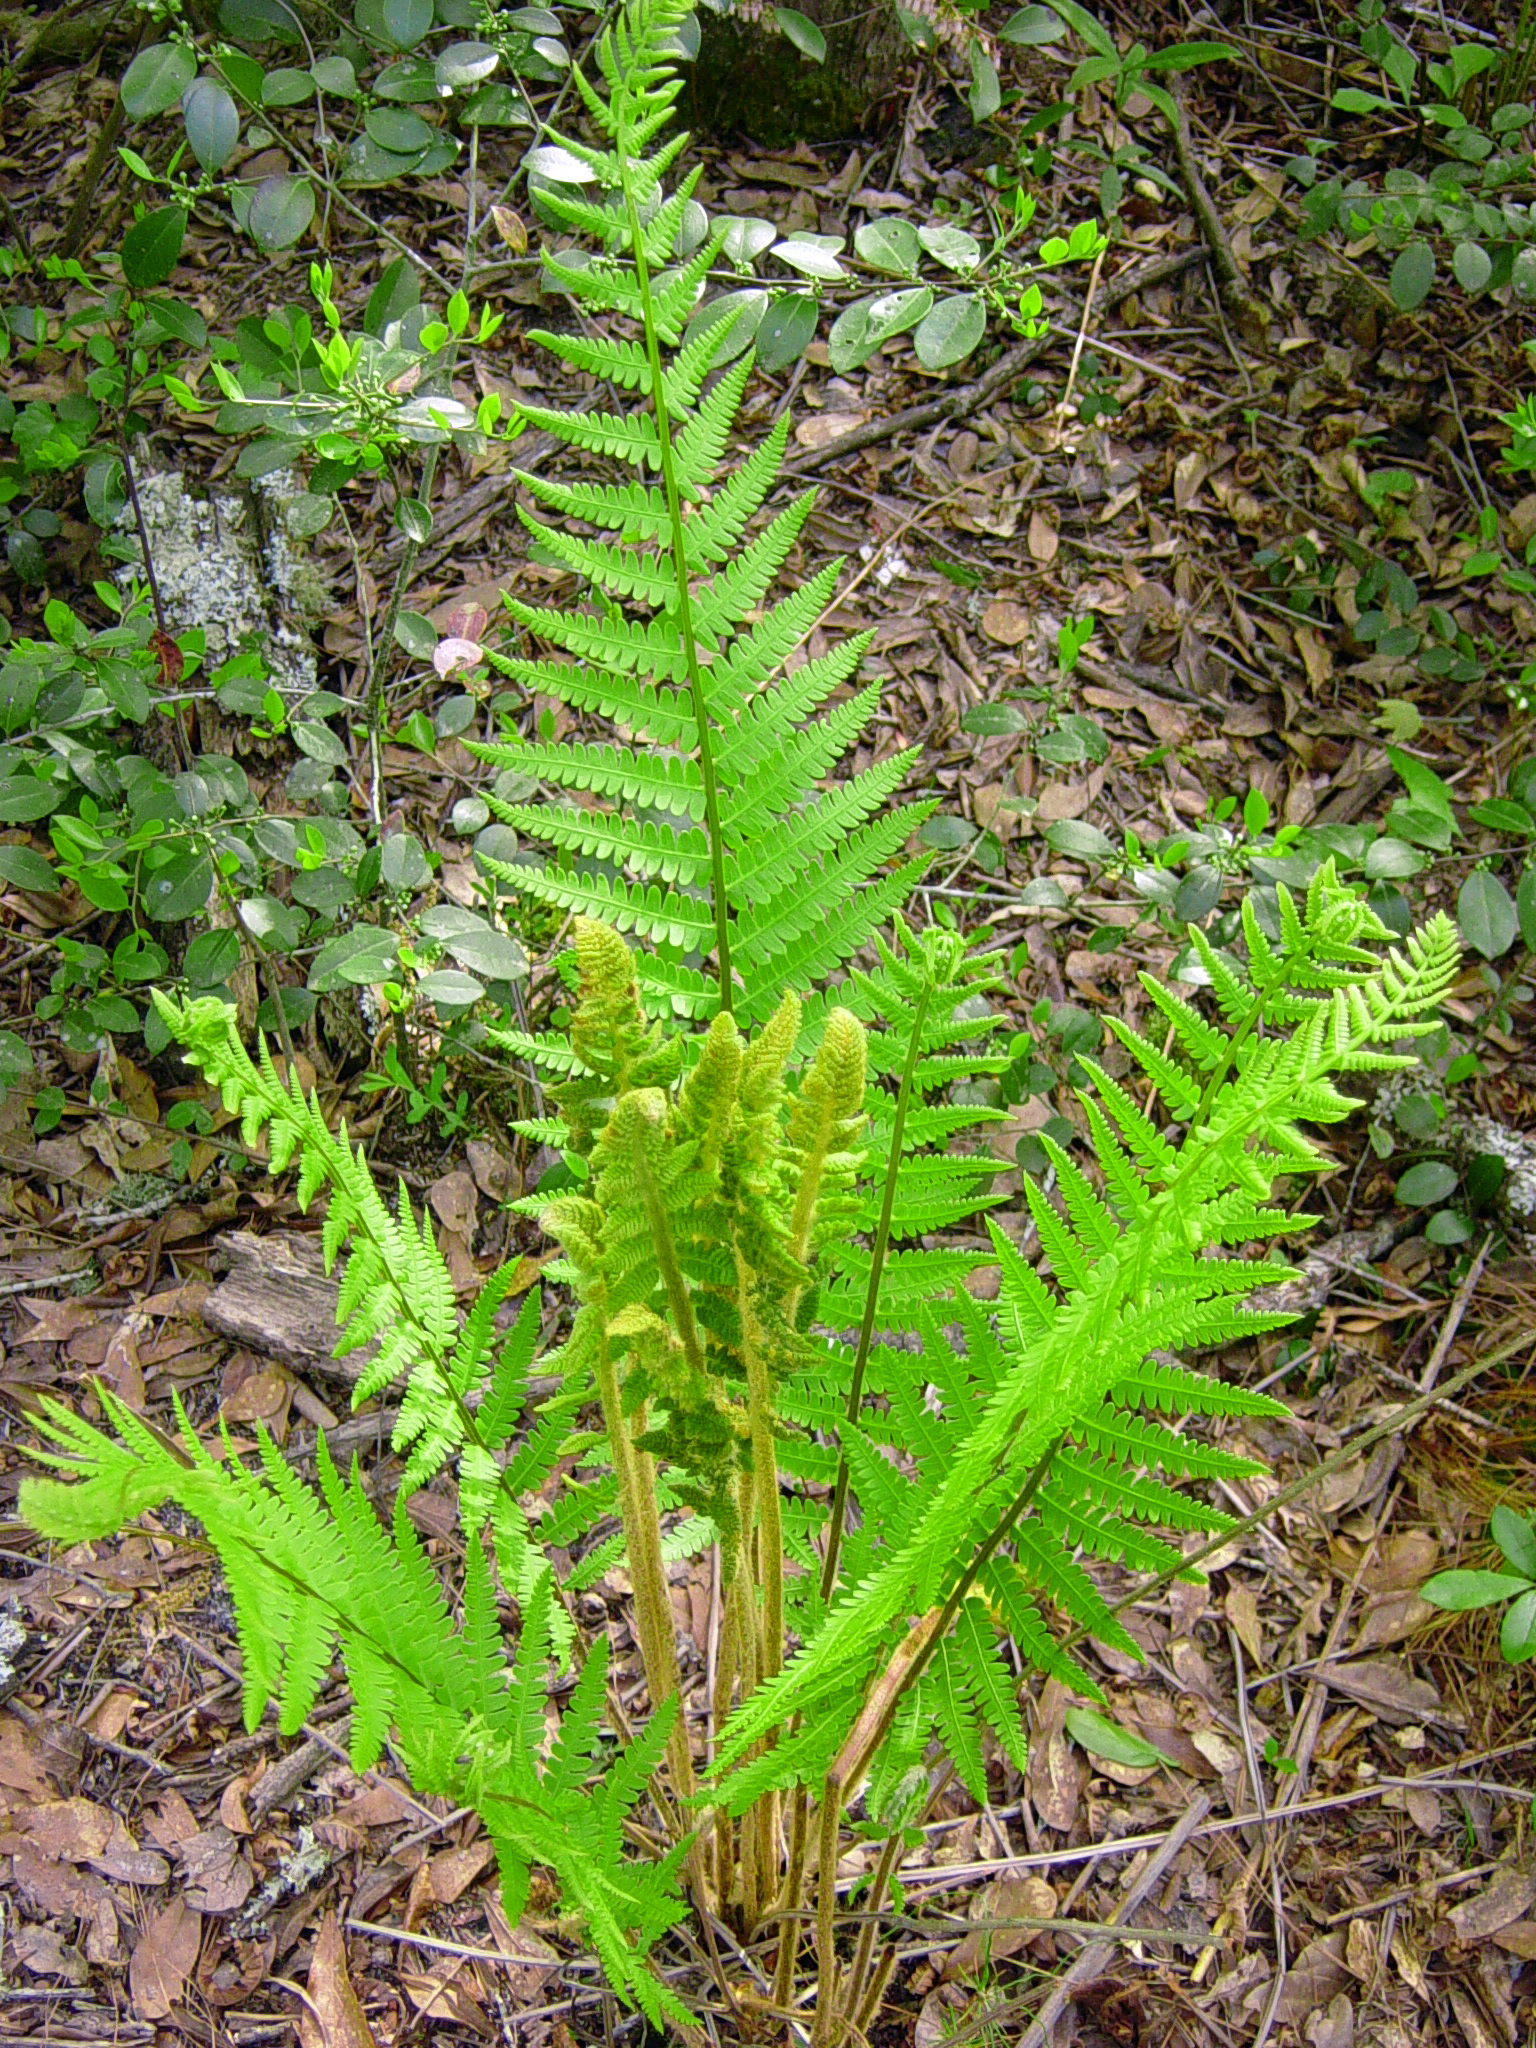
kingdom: Plantae
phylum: Tracheophyta
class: Polypodiopsida
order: Osmundales
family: Osmundaceae
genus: Osmundastrum
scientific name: Osmundastrum cinnamomeum
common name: Cinnamon fern
